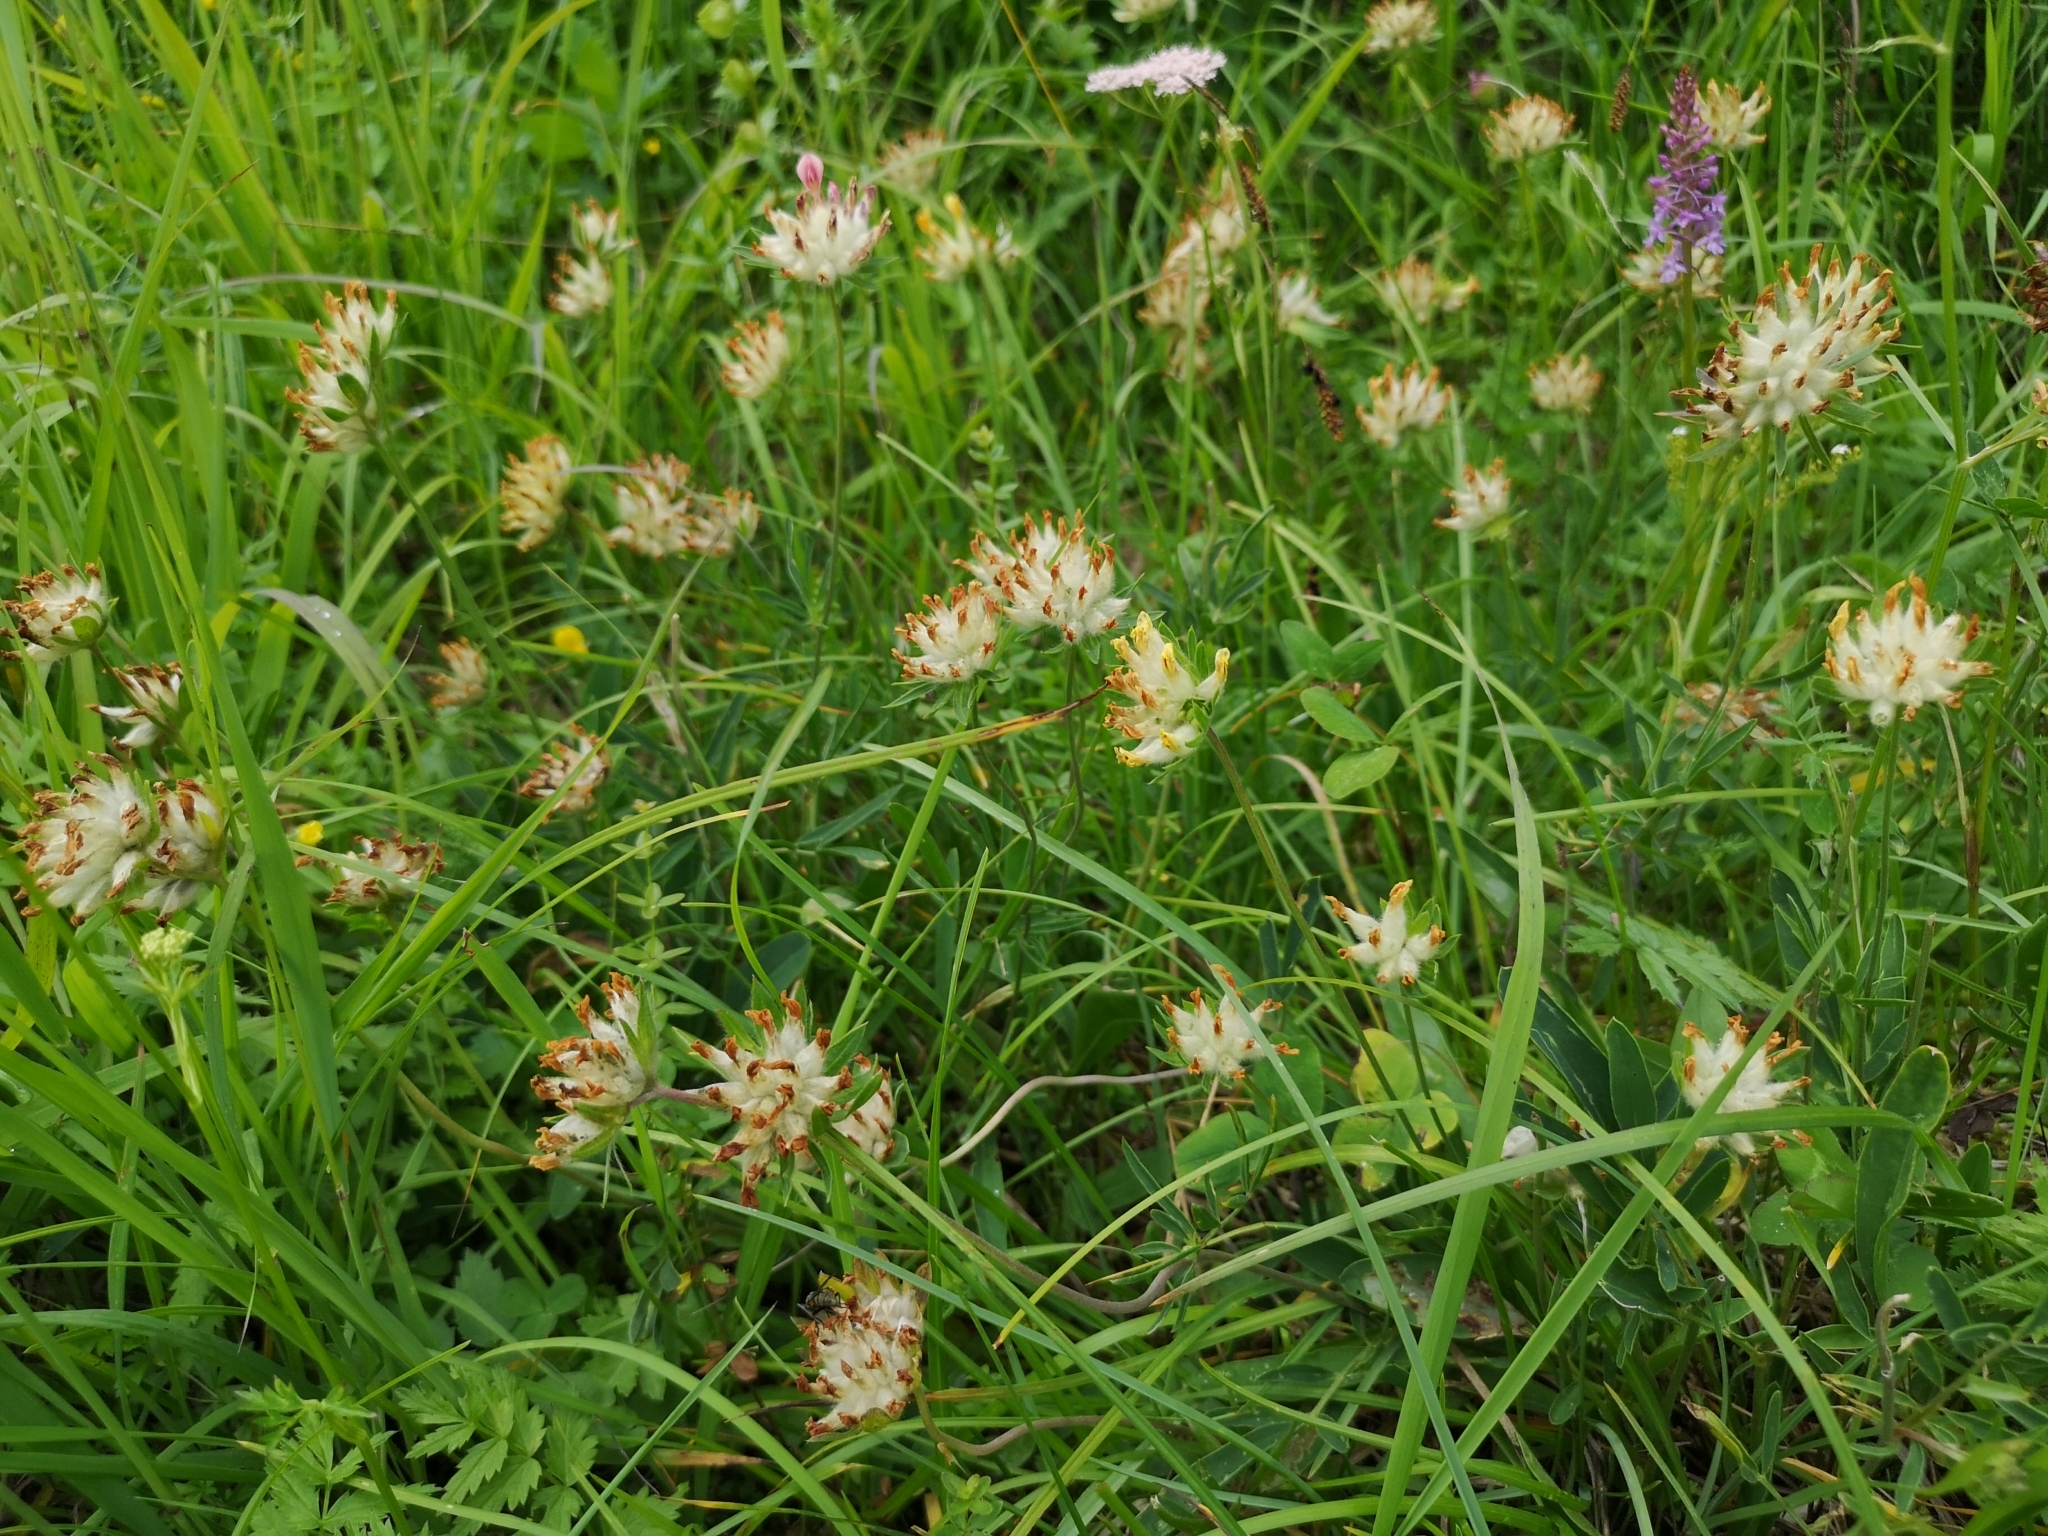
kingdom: Plantae
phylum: Tracheophyta
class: Magnoliopsida
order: Fabales
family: Fabaceae
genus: Anthyllis
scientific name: Anthyllis vulneraria
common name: Kidney vetch
